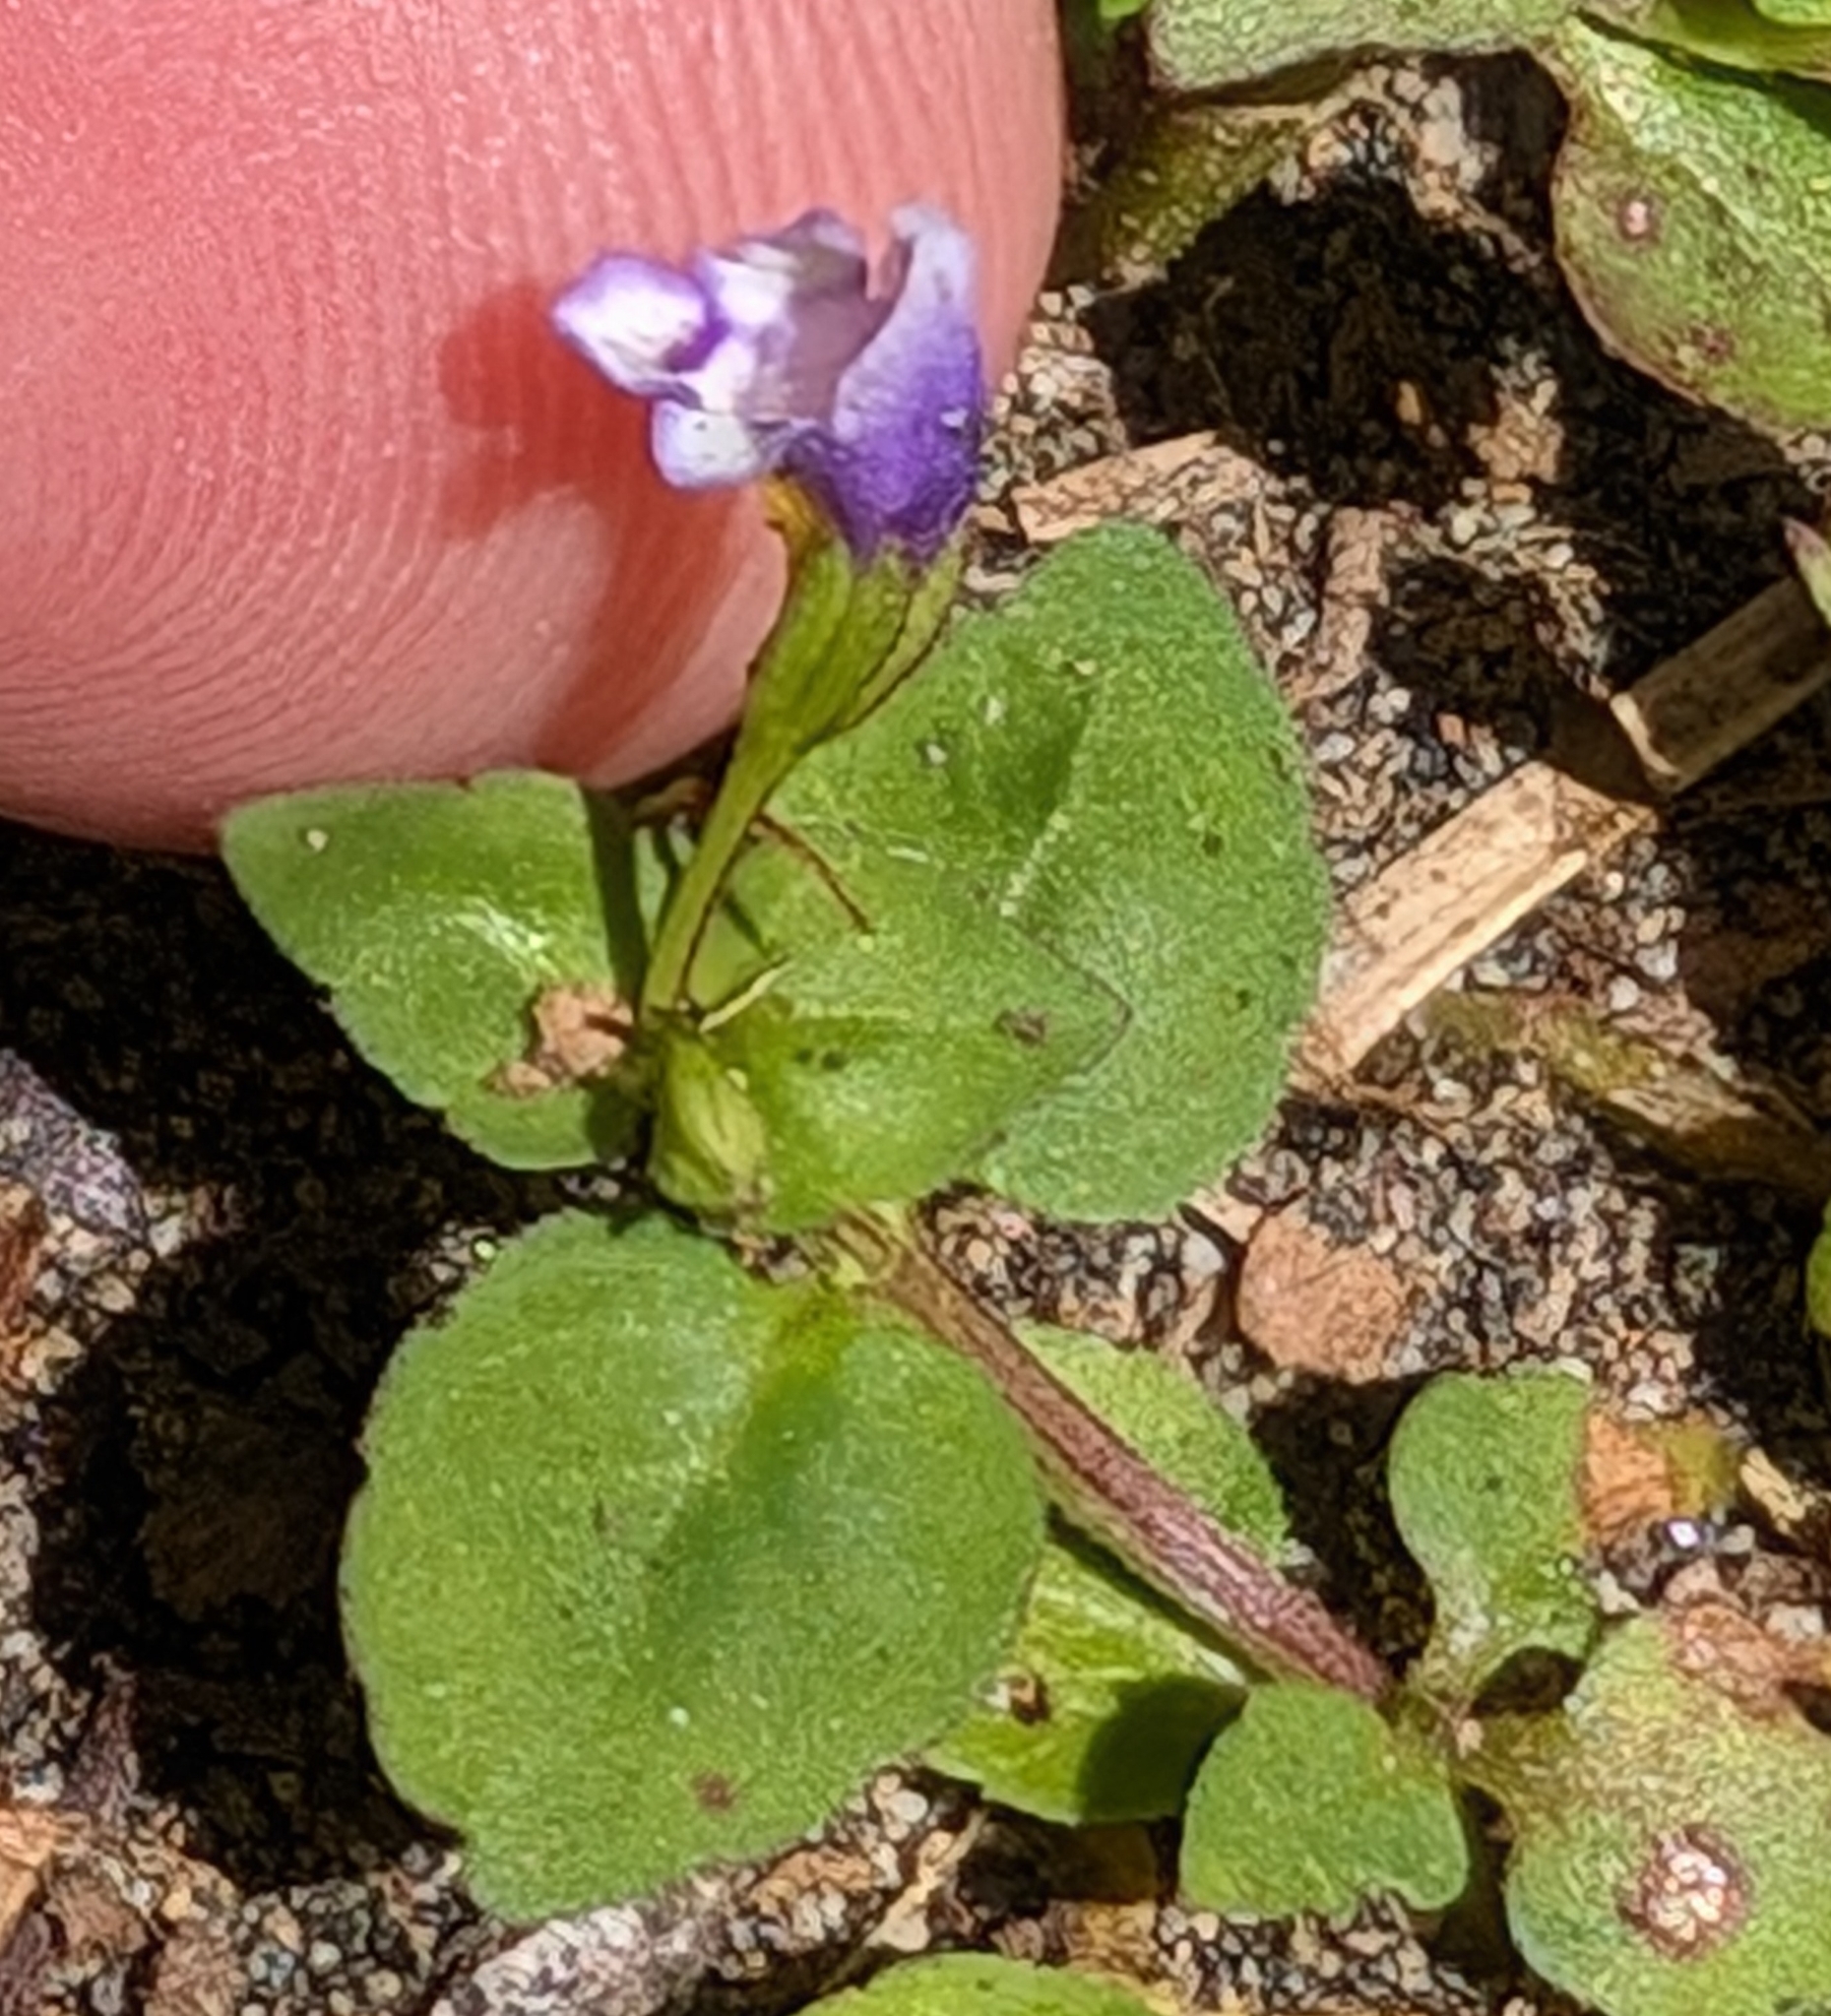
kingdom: Plantae
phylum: Tracheophyta
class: Magnoliopsida
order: Lamiales
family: Linderniaceae
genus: Torenia
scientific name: Torenia crustacea
